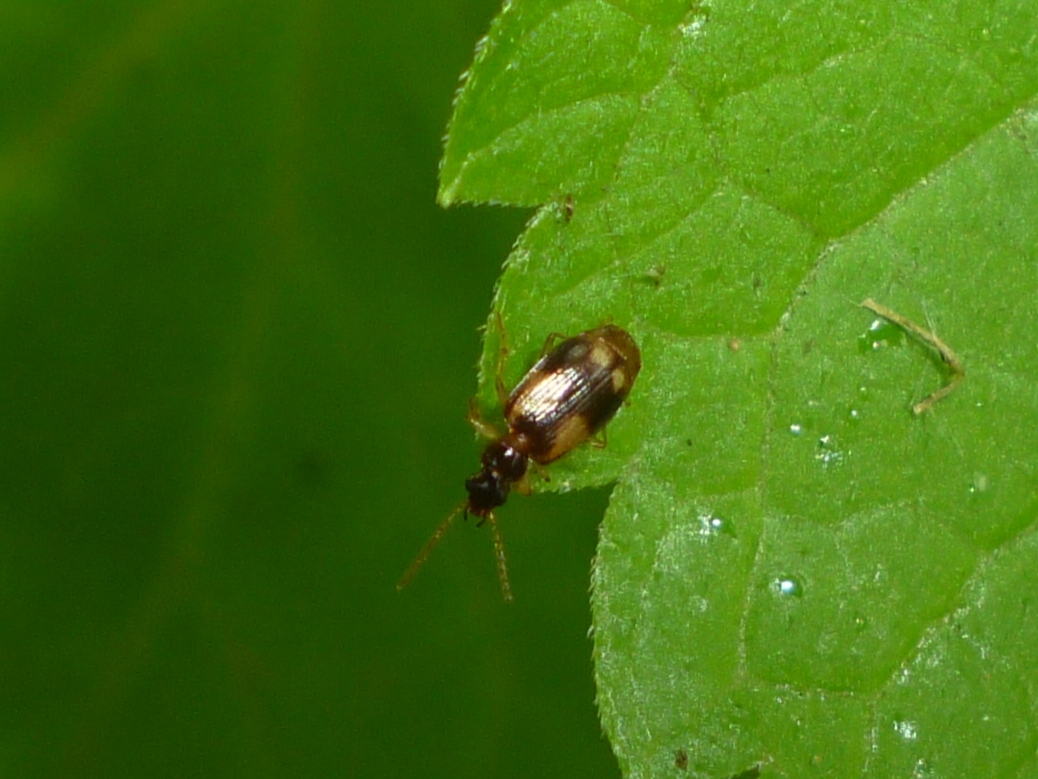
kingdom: Animalia
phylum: Arthropoda
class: Insecta
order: Coleoptera
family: Carabidae
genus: Lebia
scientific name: Lebia ornata
